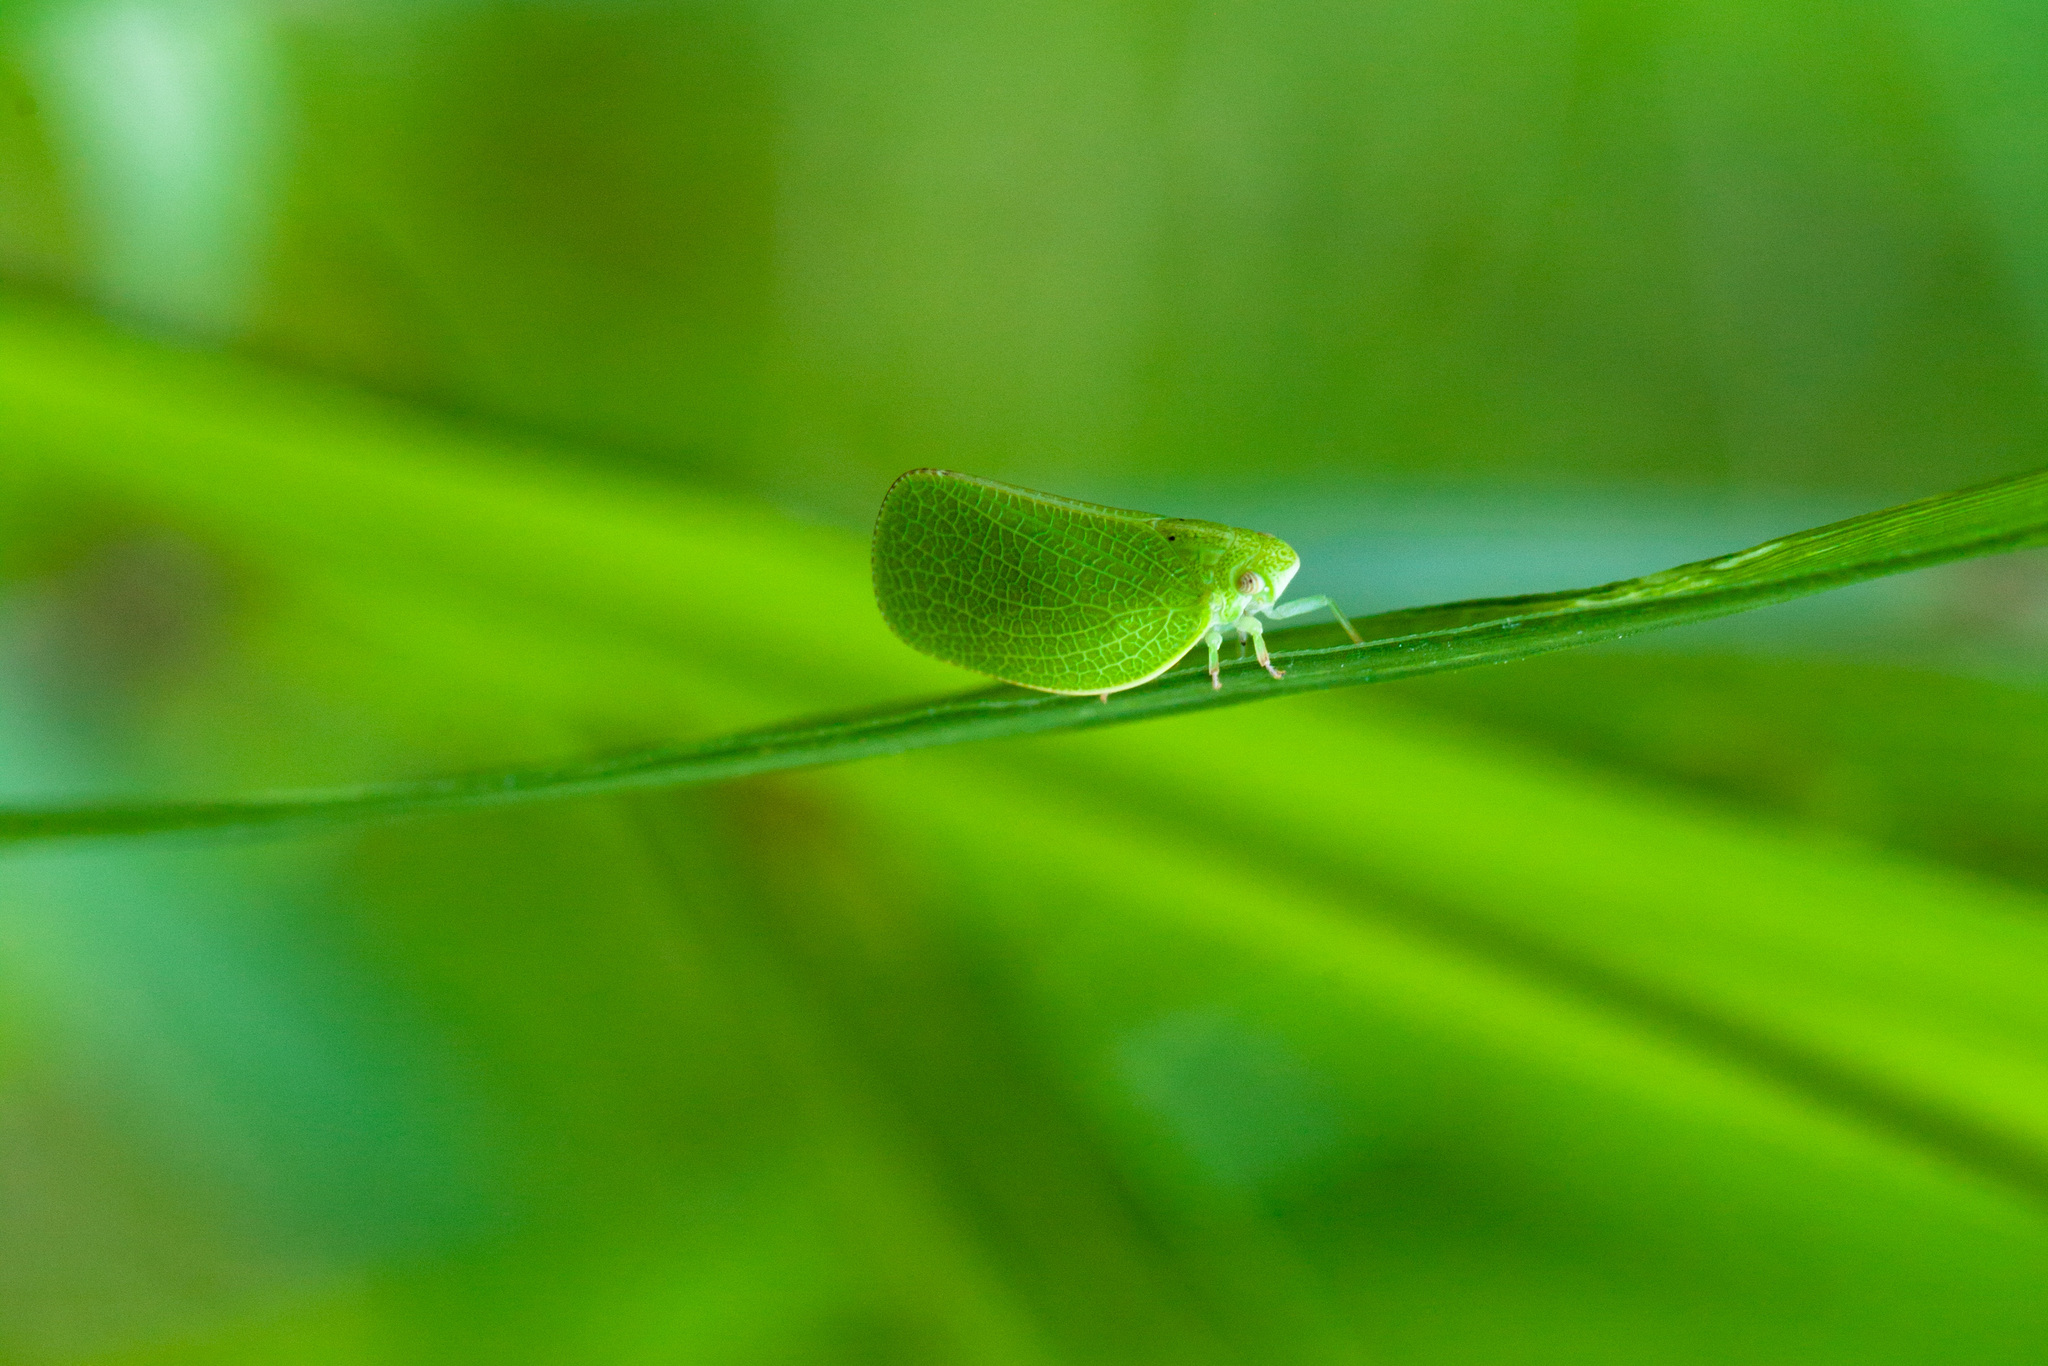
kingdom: Animalia
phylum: Arthropoda
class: Insecta
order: Hemiptera
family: Acanaloniidae
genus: Acanalonia
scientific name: Acanalonia conica
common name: Green cone-headed planthopper
